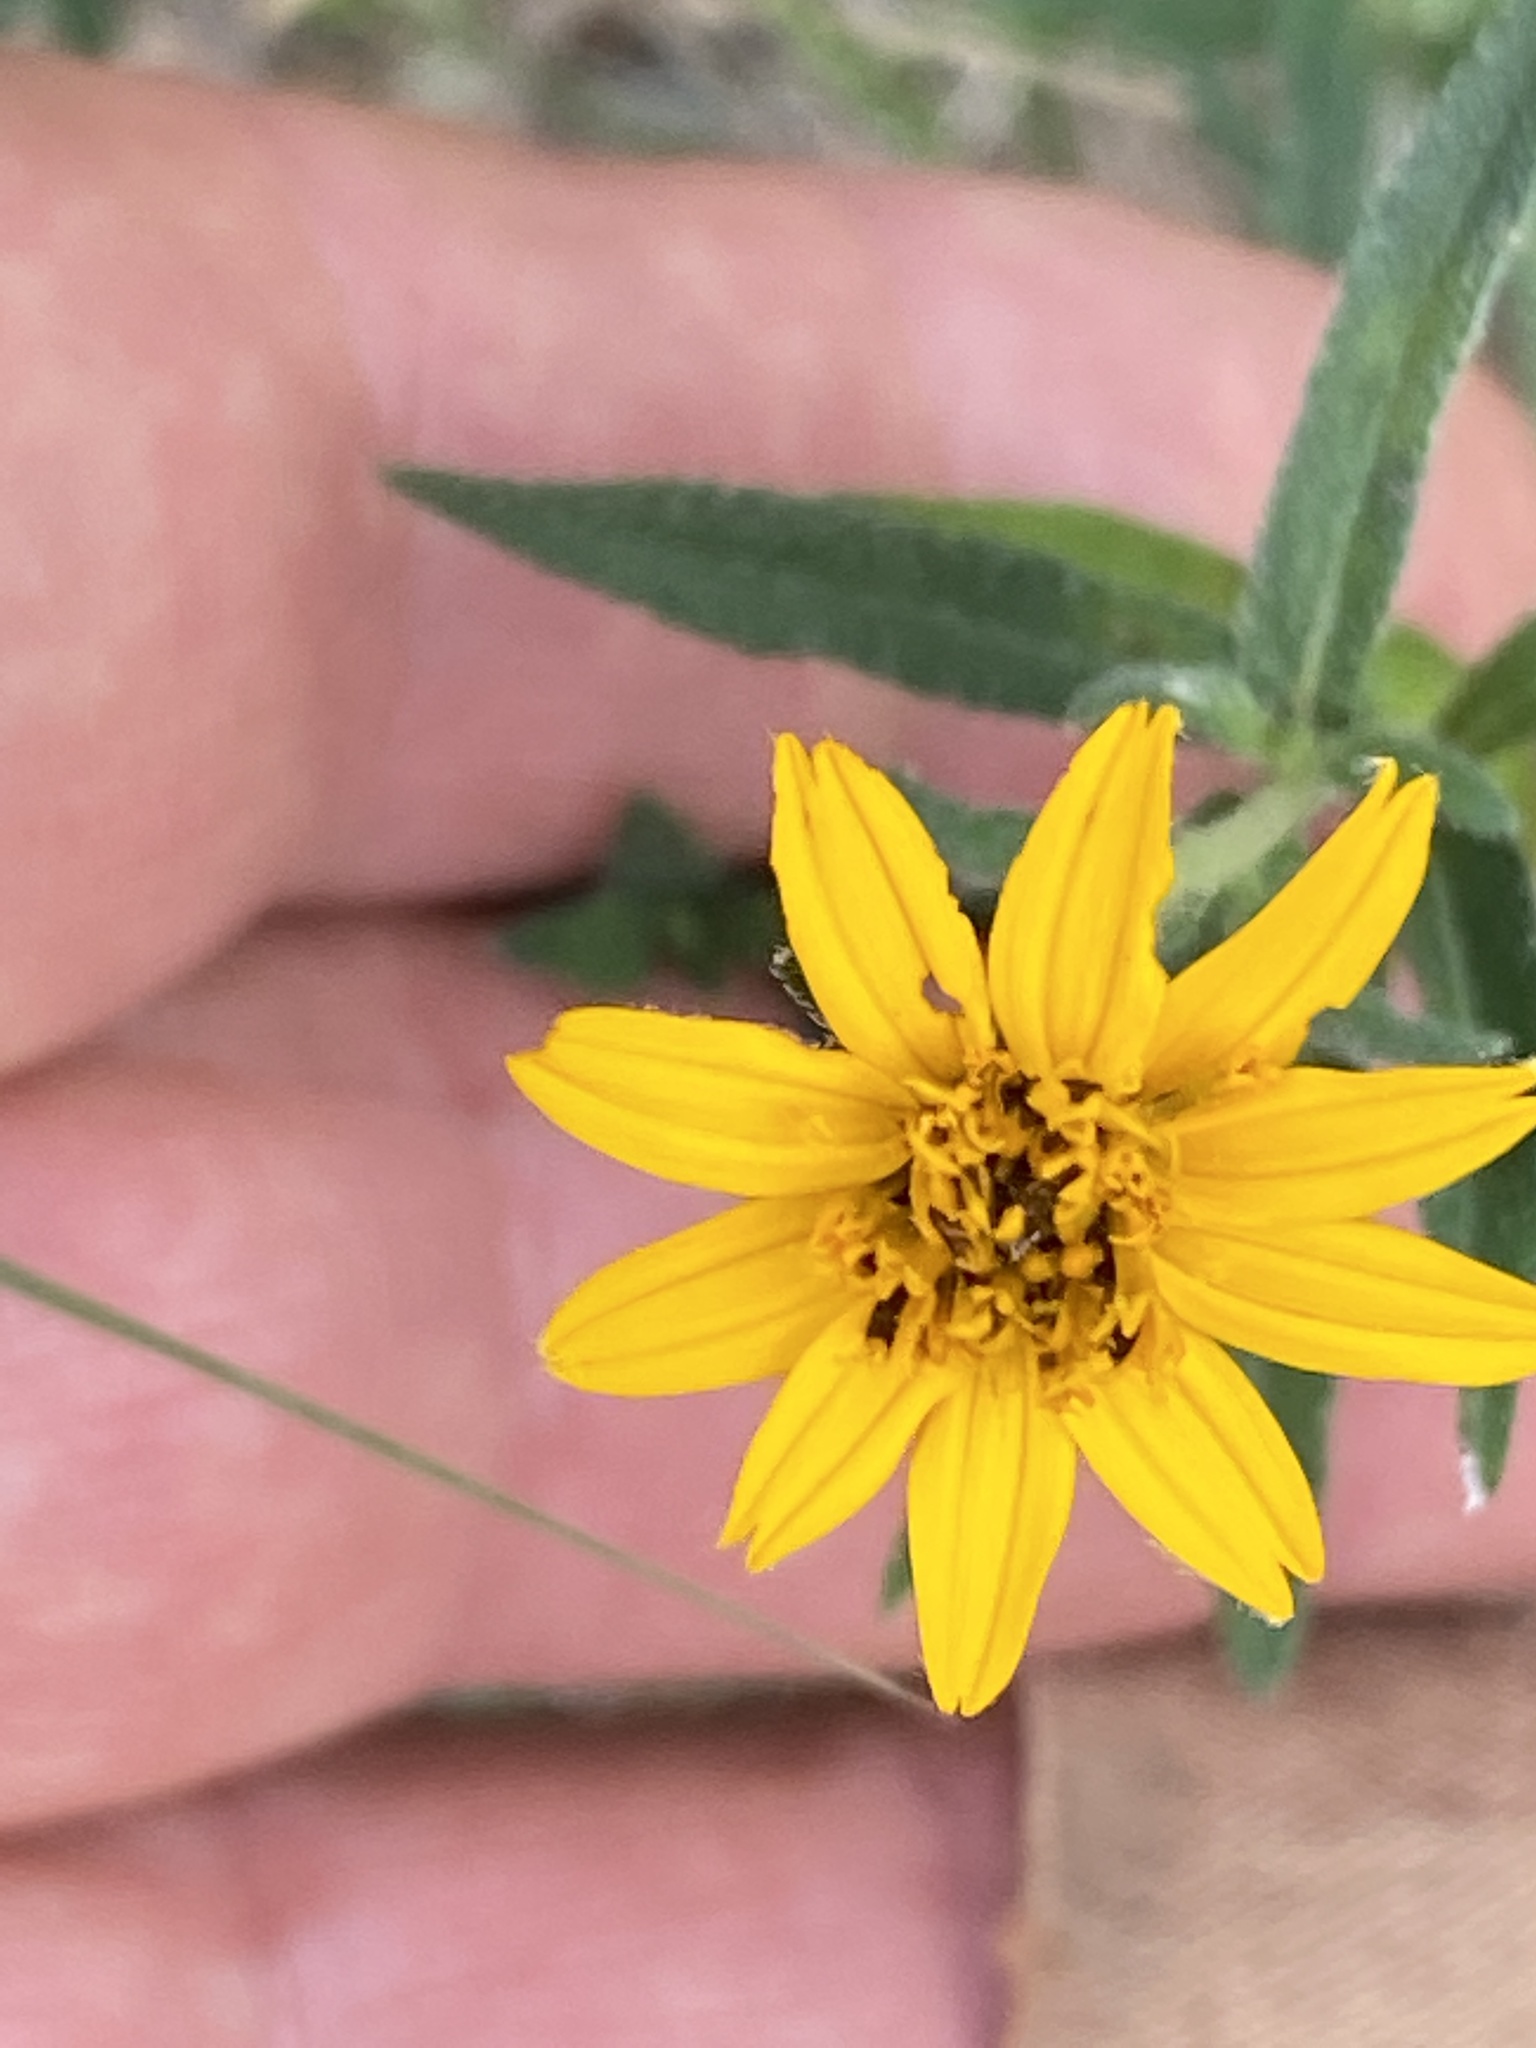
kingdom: Plantae
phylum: Tracheophyta
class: Magnoliopsida
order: Asterales
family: Asteraceae
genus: Wedelia
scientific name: Wedelia acapulcensis
